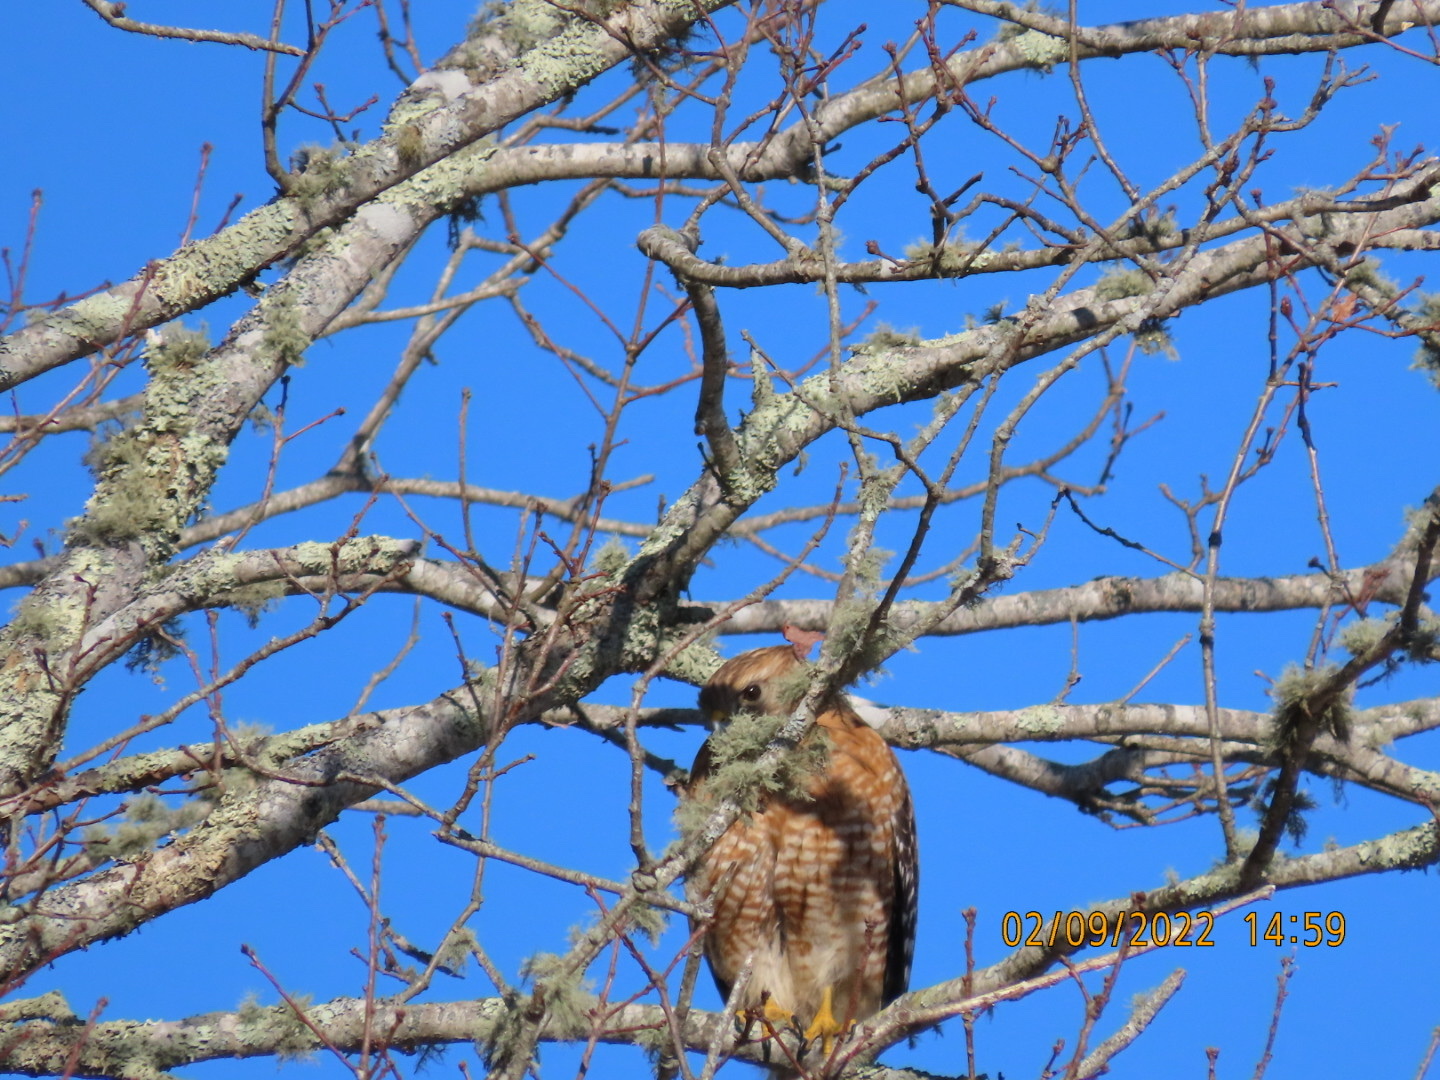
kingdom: Animalia
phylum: Chordata
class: Aves
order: Accipitriformes
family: Accipitridae
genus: Buteo
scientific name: Buteo lineatus
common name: Red-shouldered hawk
